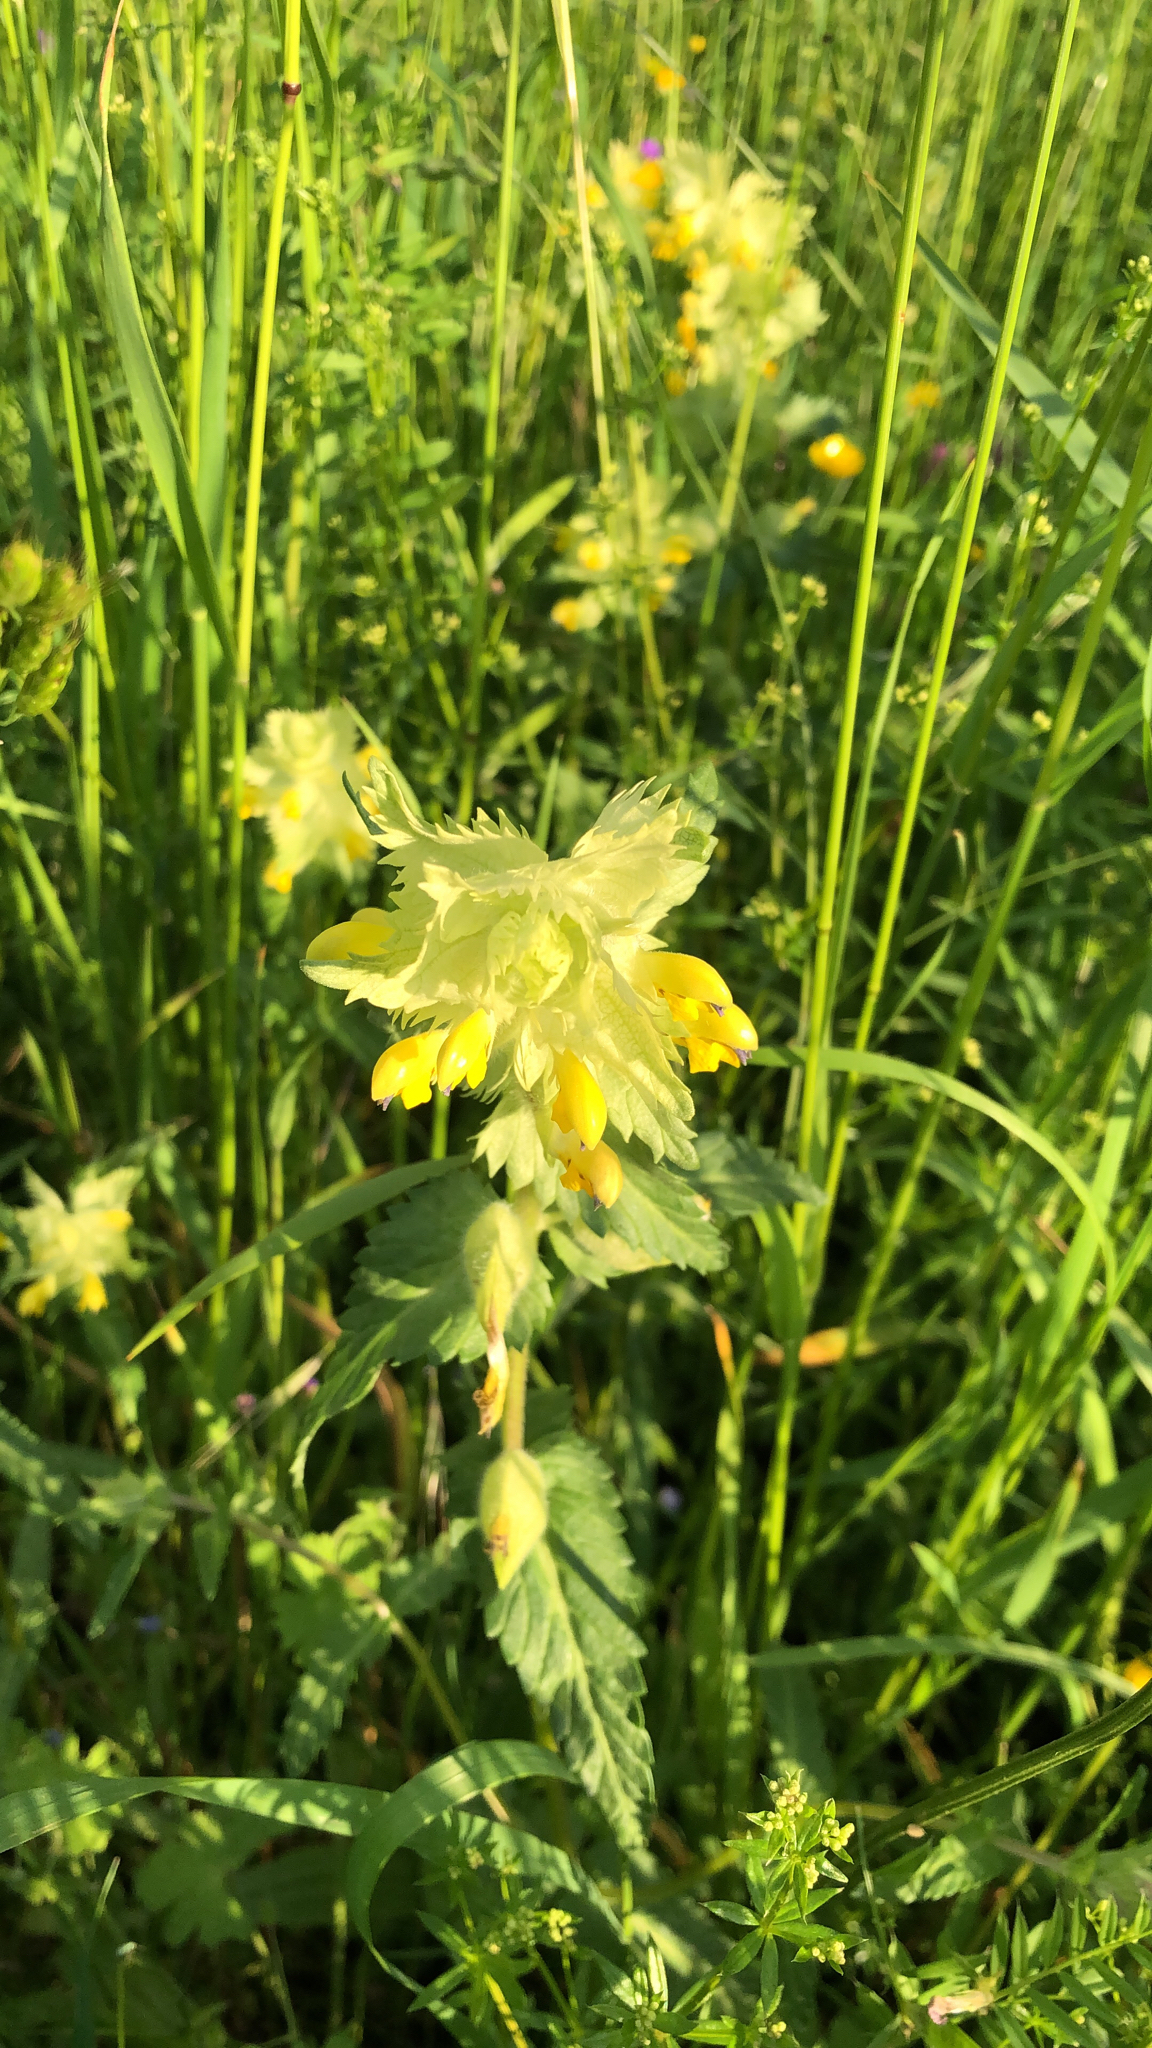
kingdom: Plantae
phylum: Tracheophyta
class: Magnoliopsida
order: Lamiales
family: Orobanchaceae
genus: Rhinanthus
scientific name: Rhinanthus alectorolophus
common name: Greater yellow-rattle
